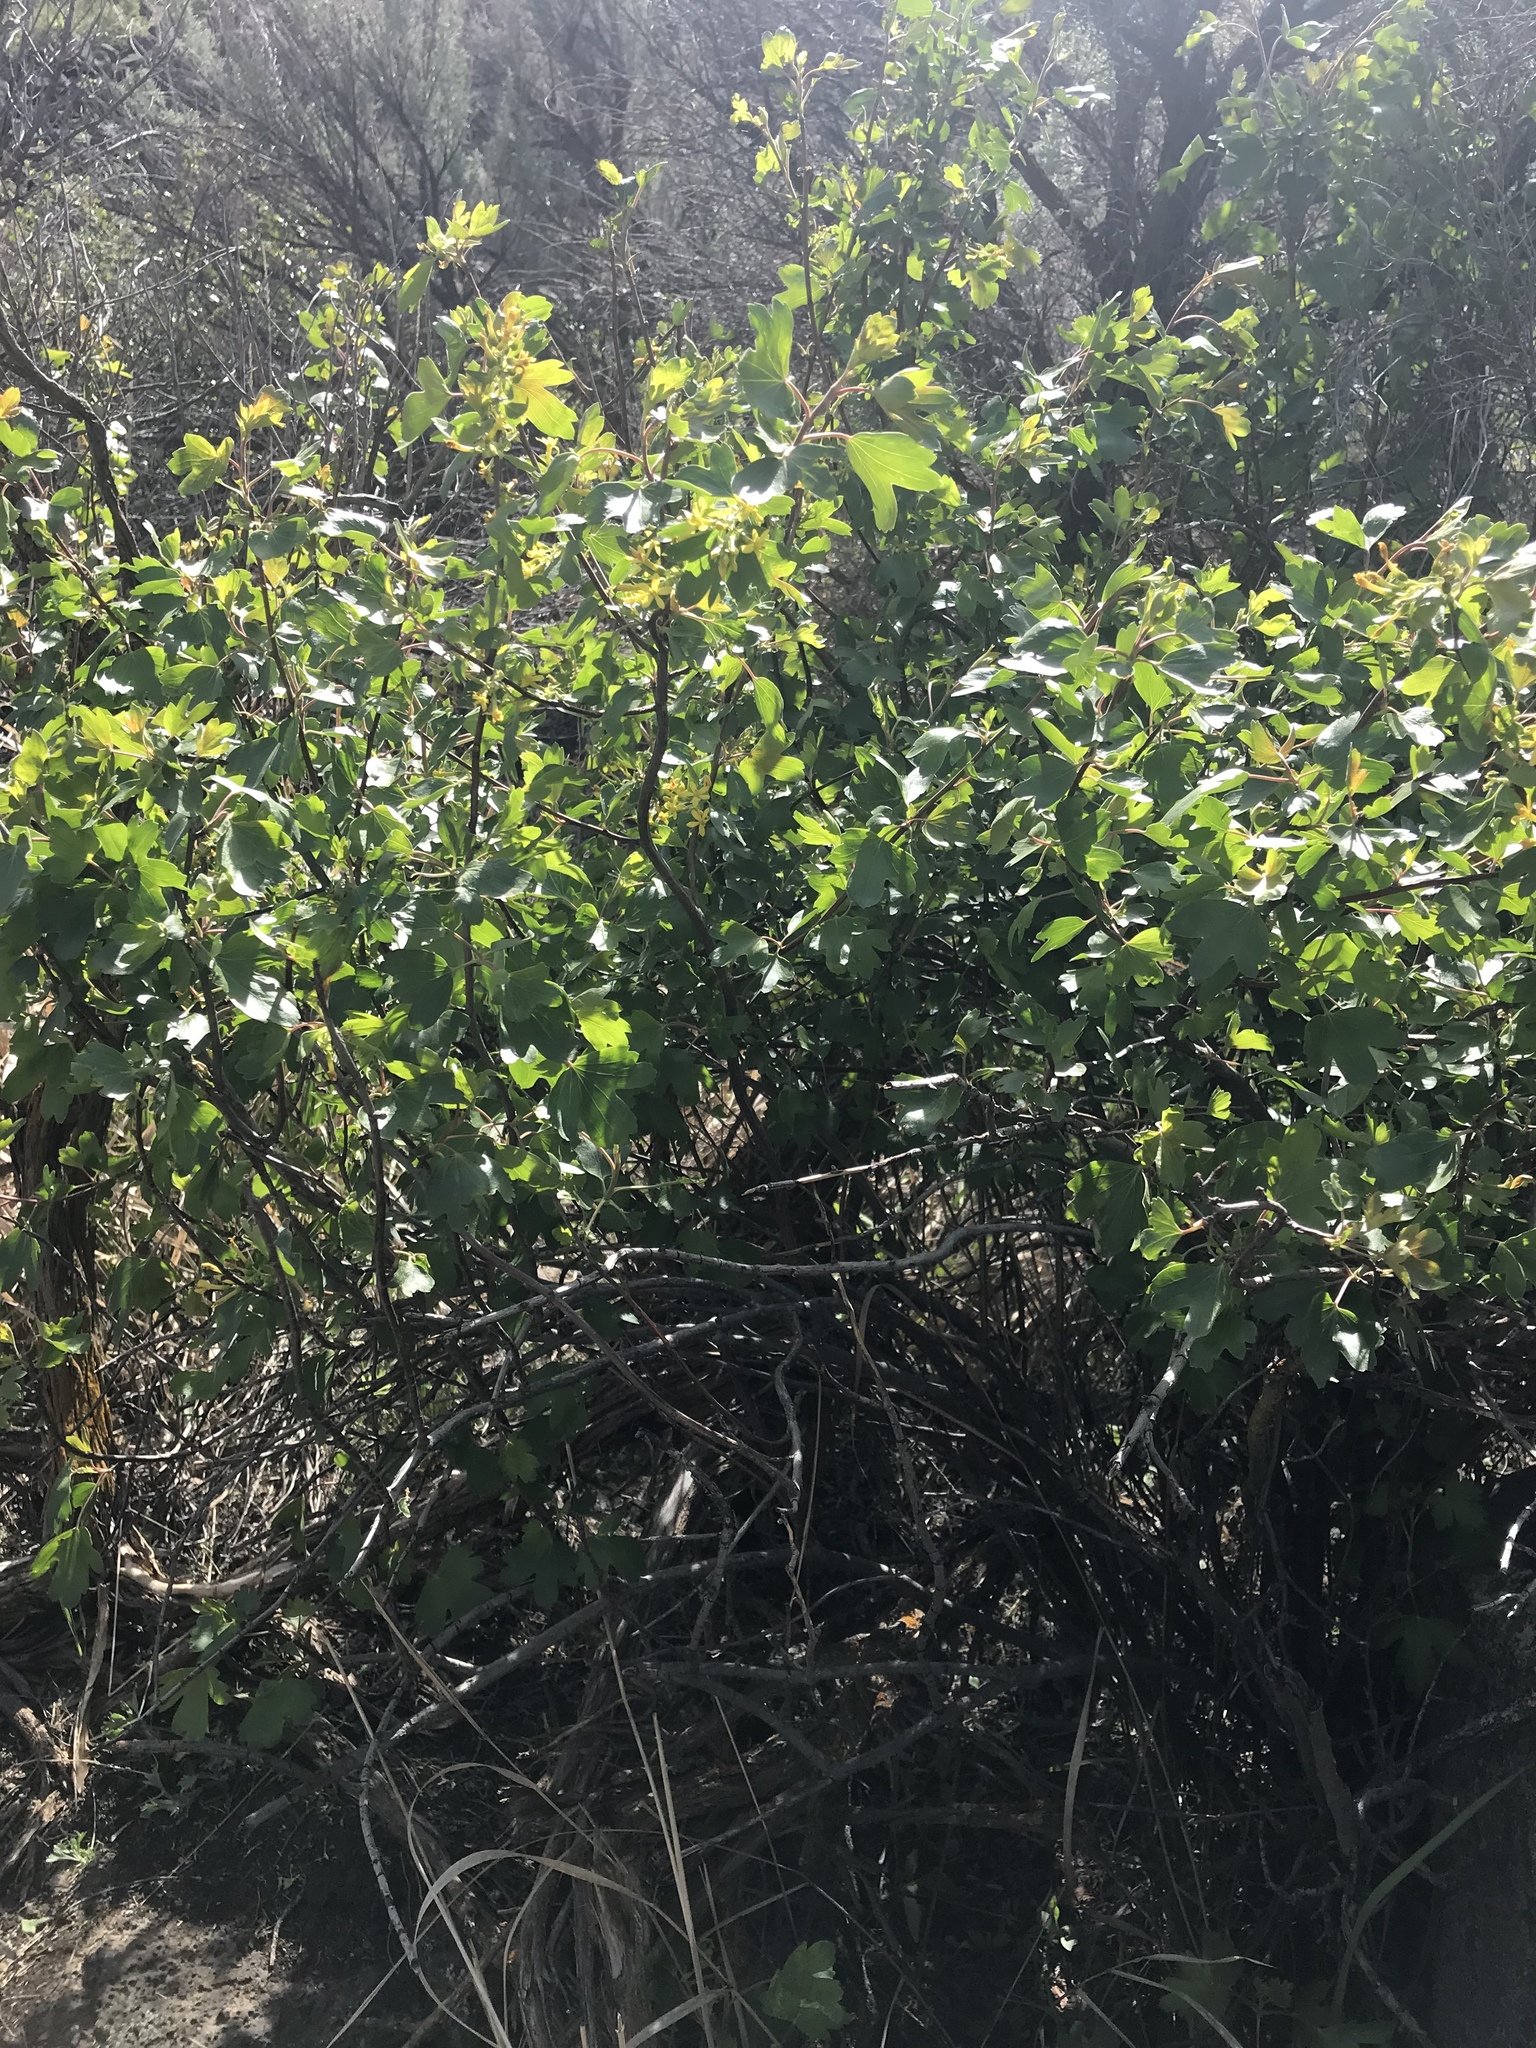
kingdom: Plantae
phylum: Tracheophyta
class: Magnoliopsida
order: Saxifragales
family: Grossulariaceae
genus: Ribes
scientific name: Ribes aureum
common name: Golden currant
